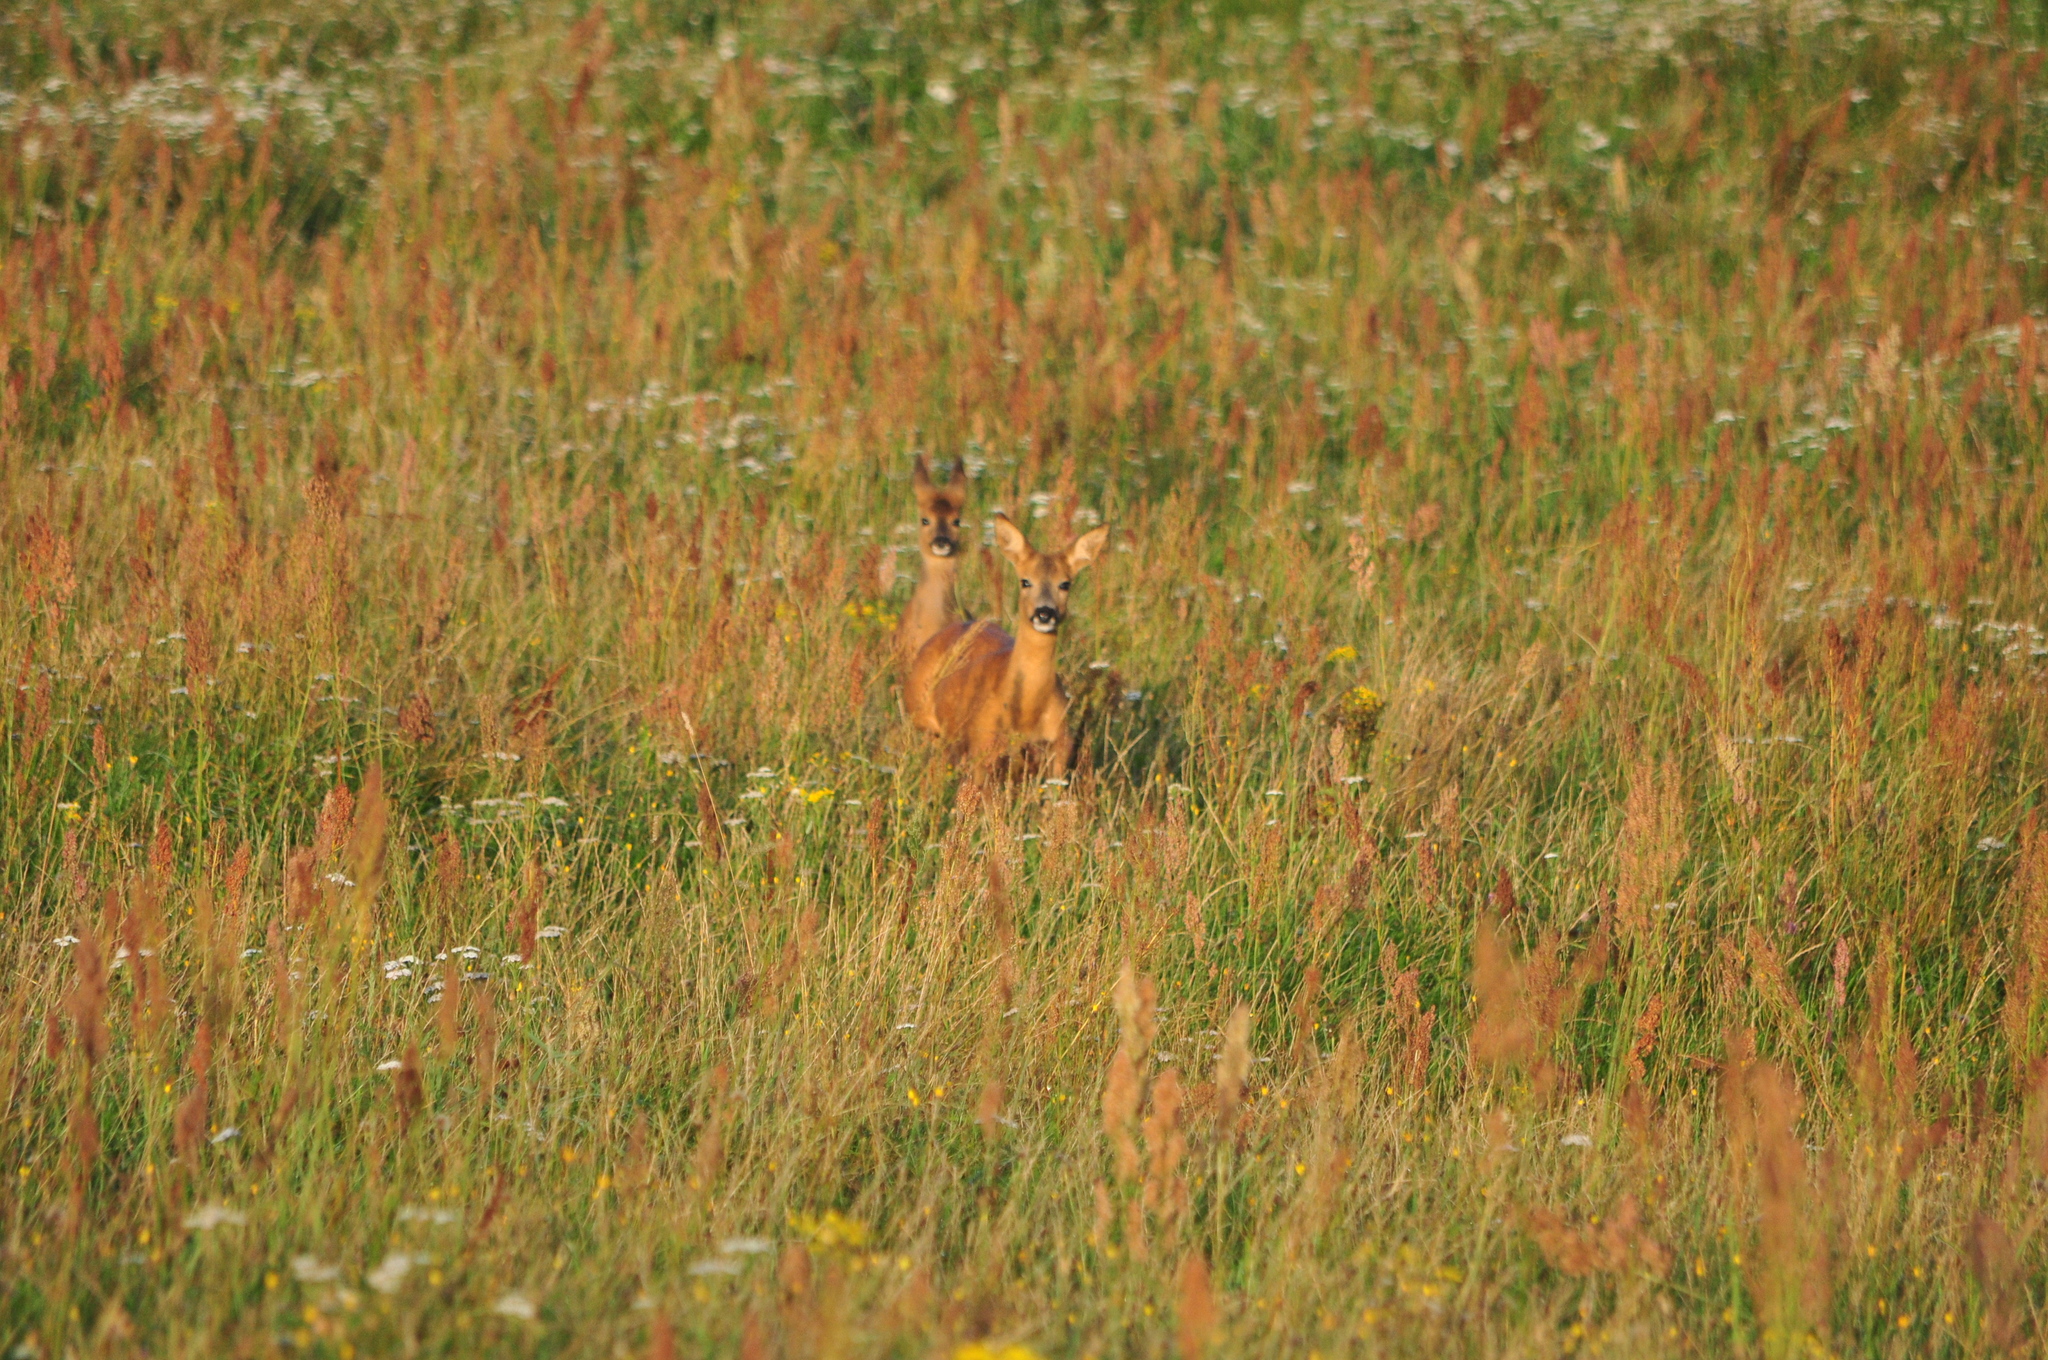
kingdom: Animalia
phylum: Chordata
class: Mammalia
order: Artiodactyla
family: Cervidae
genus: Capreolus
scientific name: Capreolus capreolus
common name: Western roe deer
